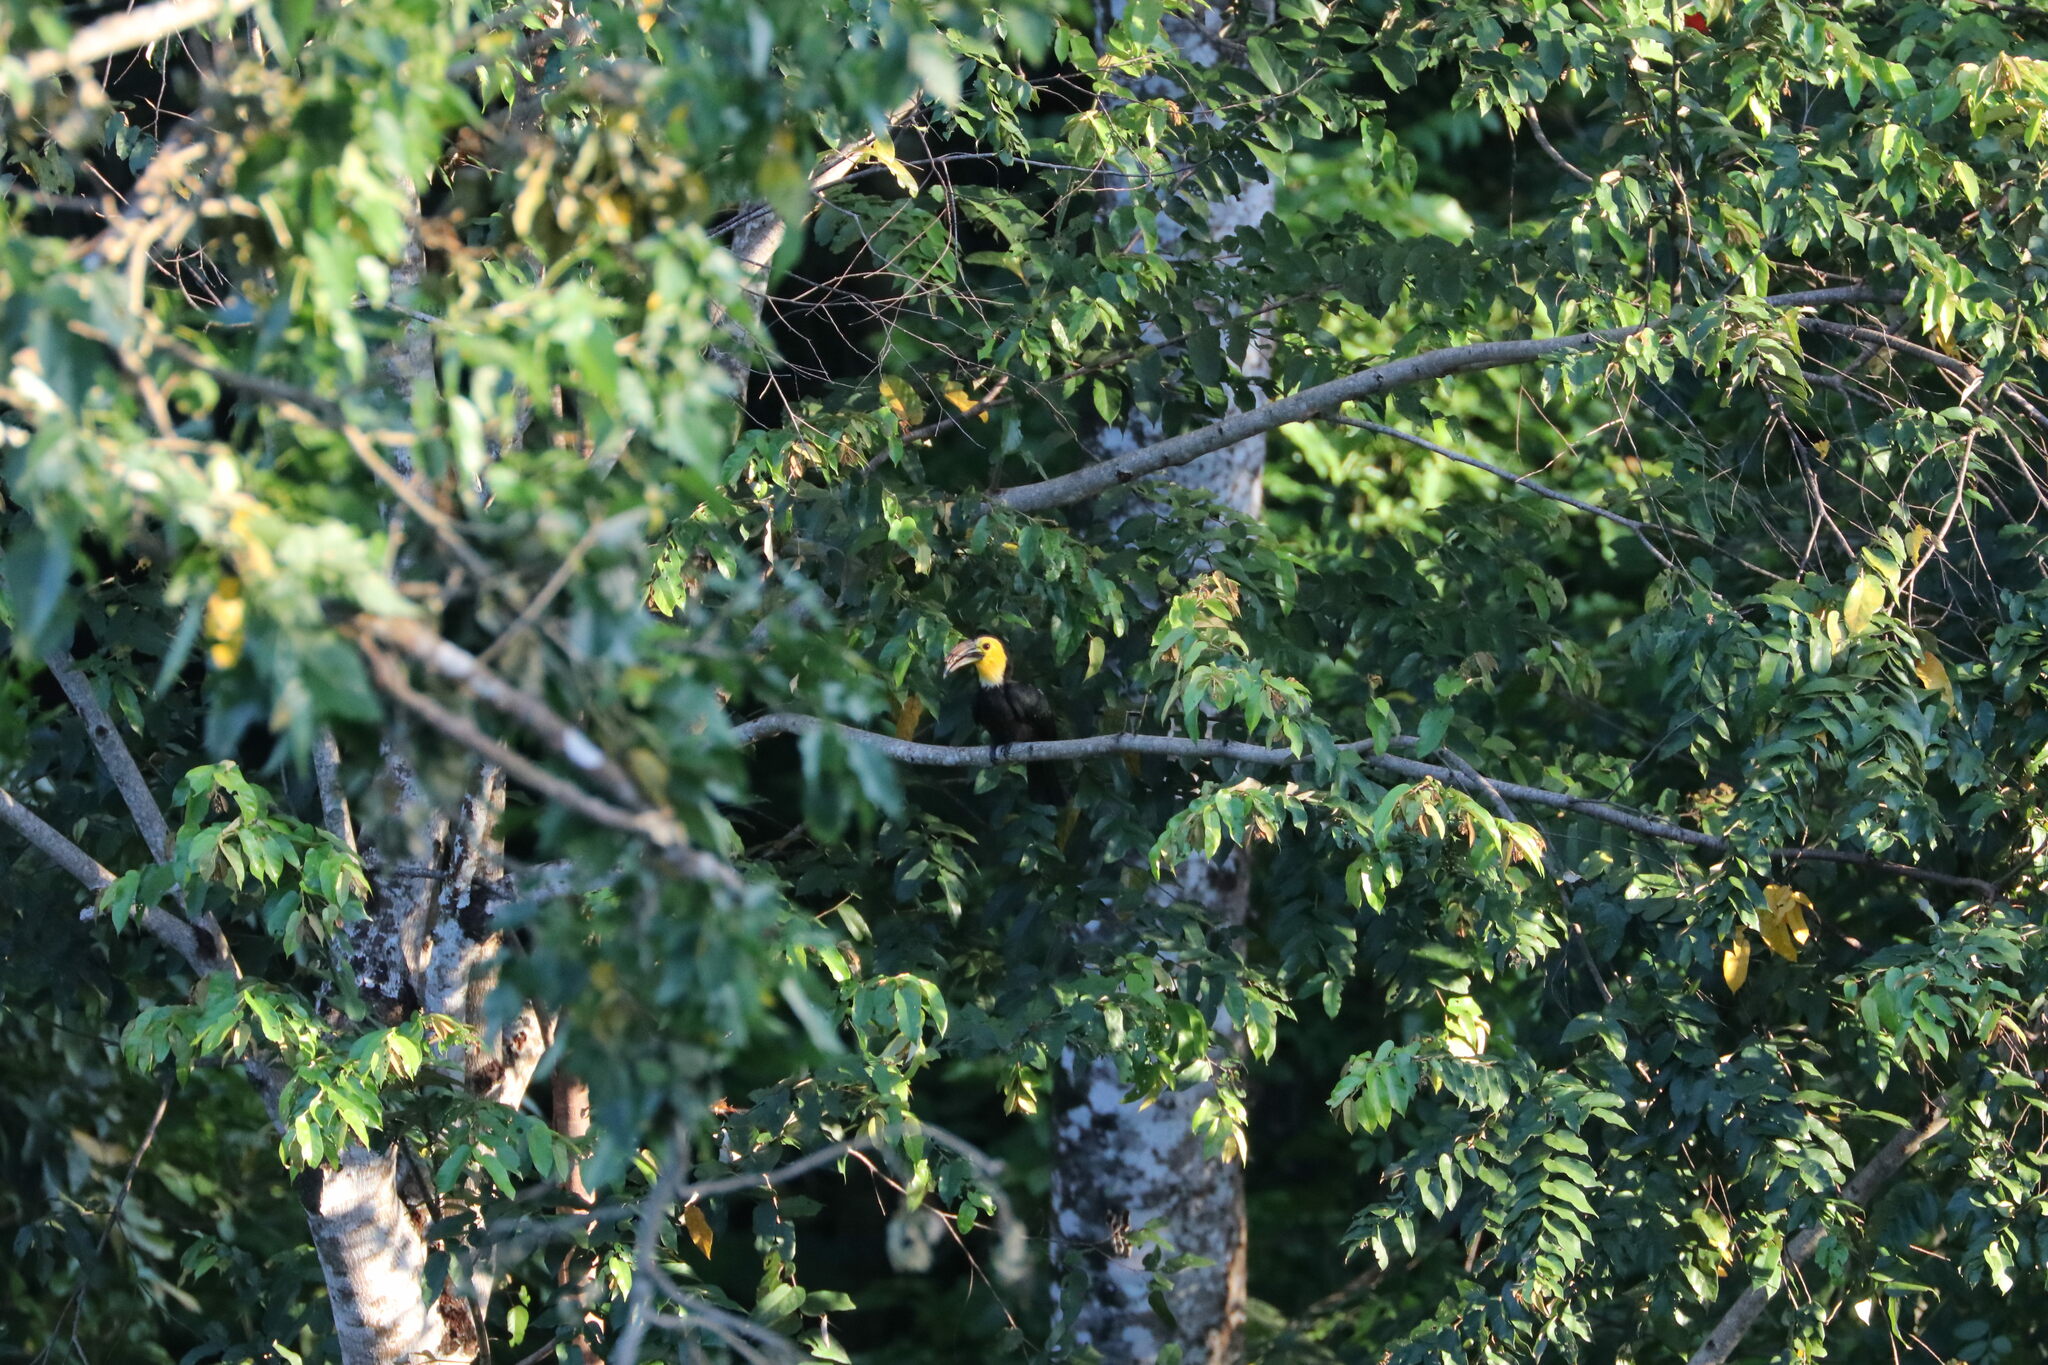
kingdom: Animalia
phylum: Chordata
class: Aves
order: Bucerotiformes
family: Bucerotidae
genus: Rhabdotorrhinus
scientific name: Rhabdotorrhinus exarhatus
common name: Sulawesi hornbill
